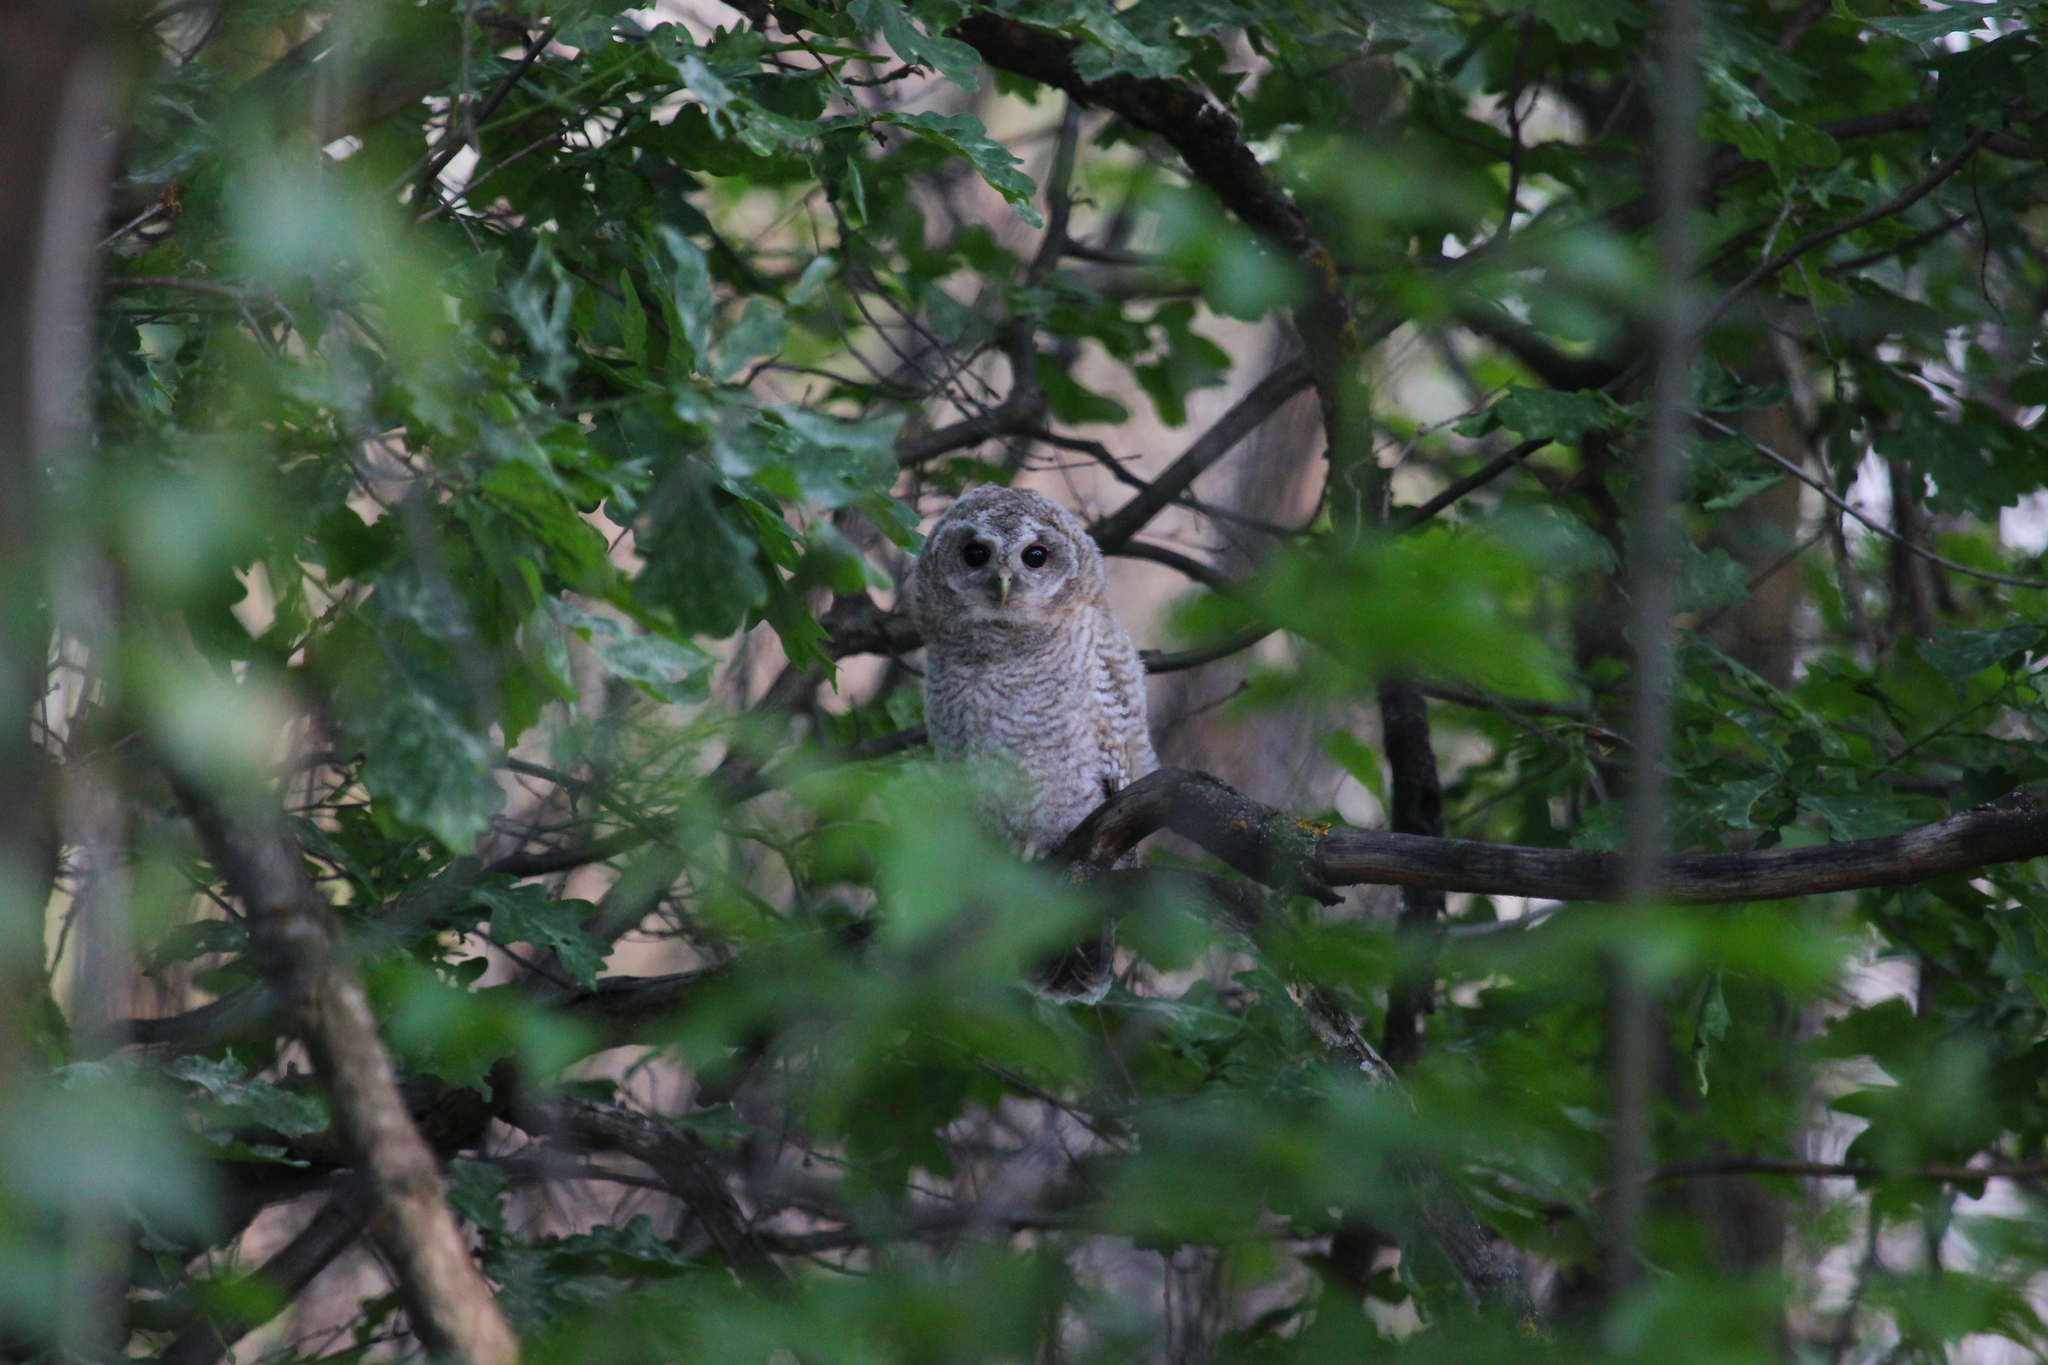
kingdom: Animalia
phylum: Chordata
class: Aves
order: Strigiformes
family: Strigidae
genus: Strix
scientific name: Strix aluco
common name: Tawny owl
